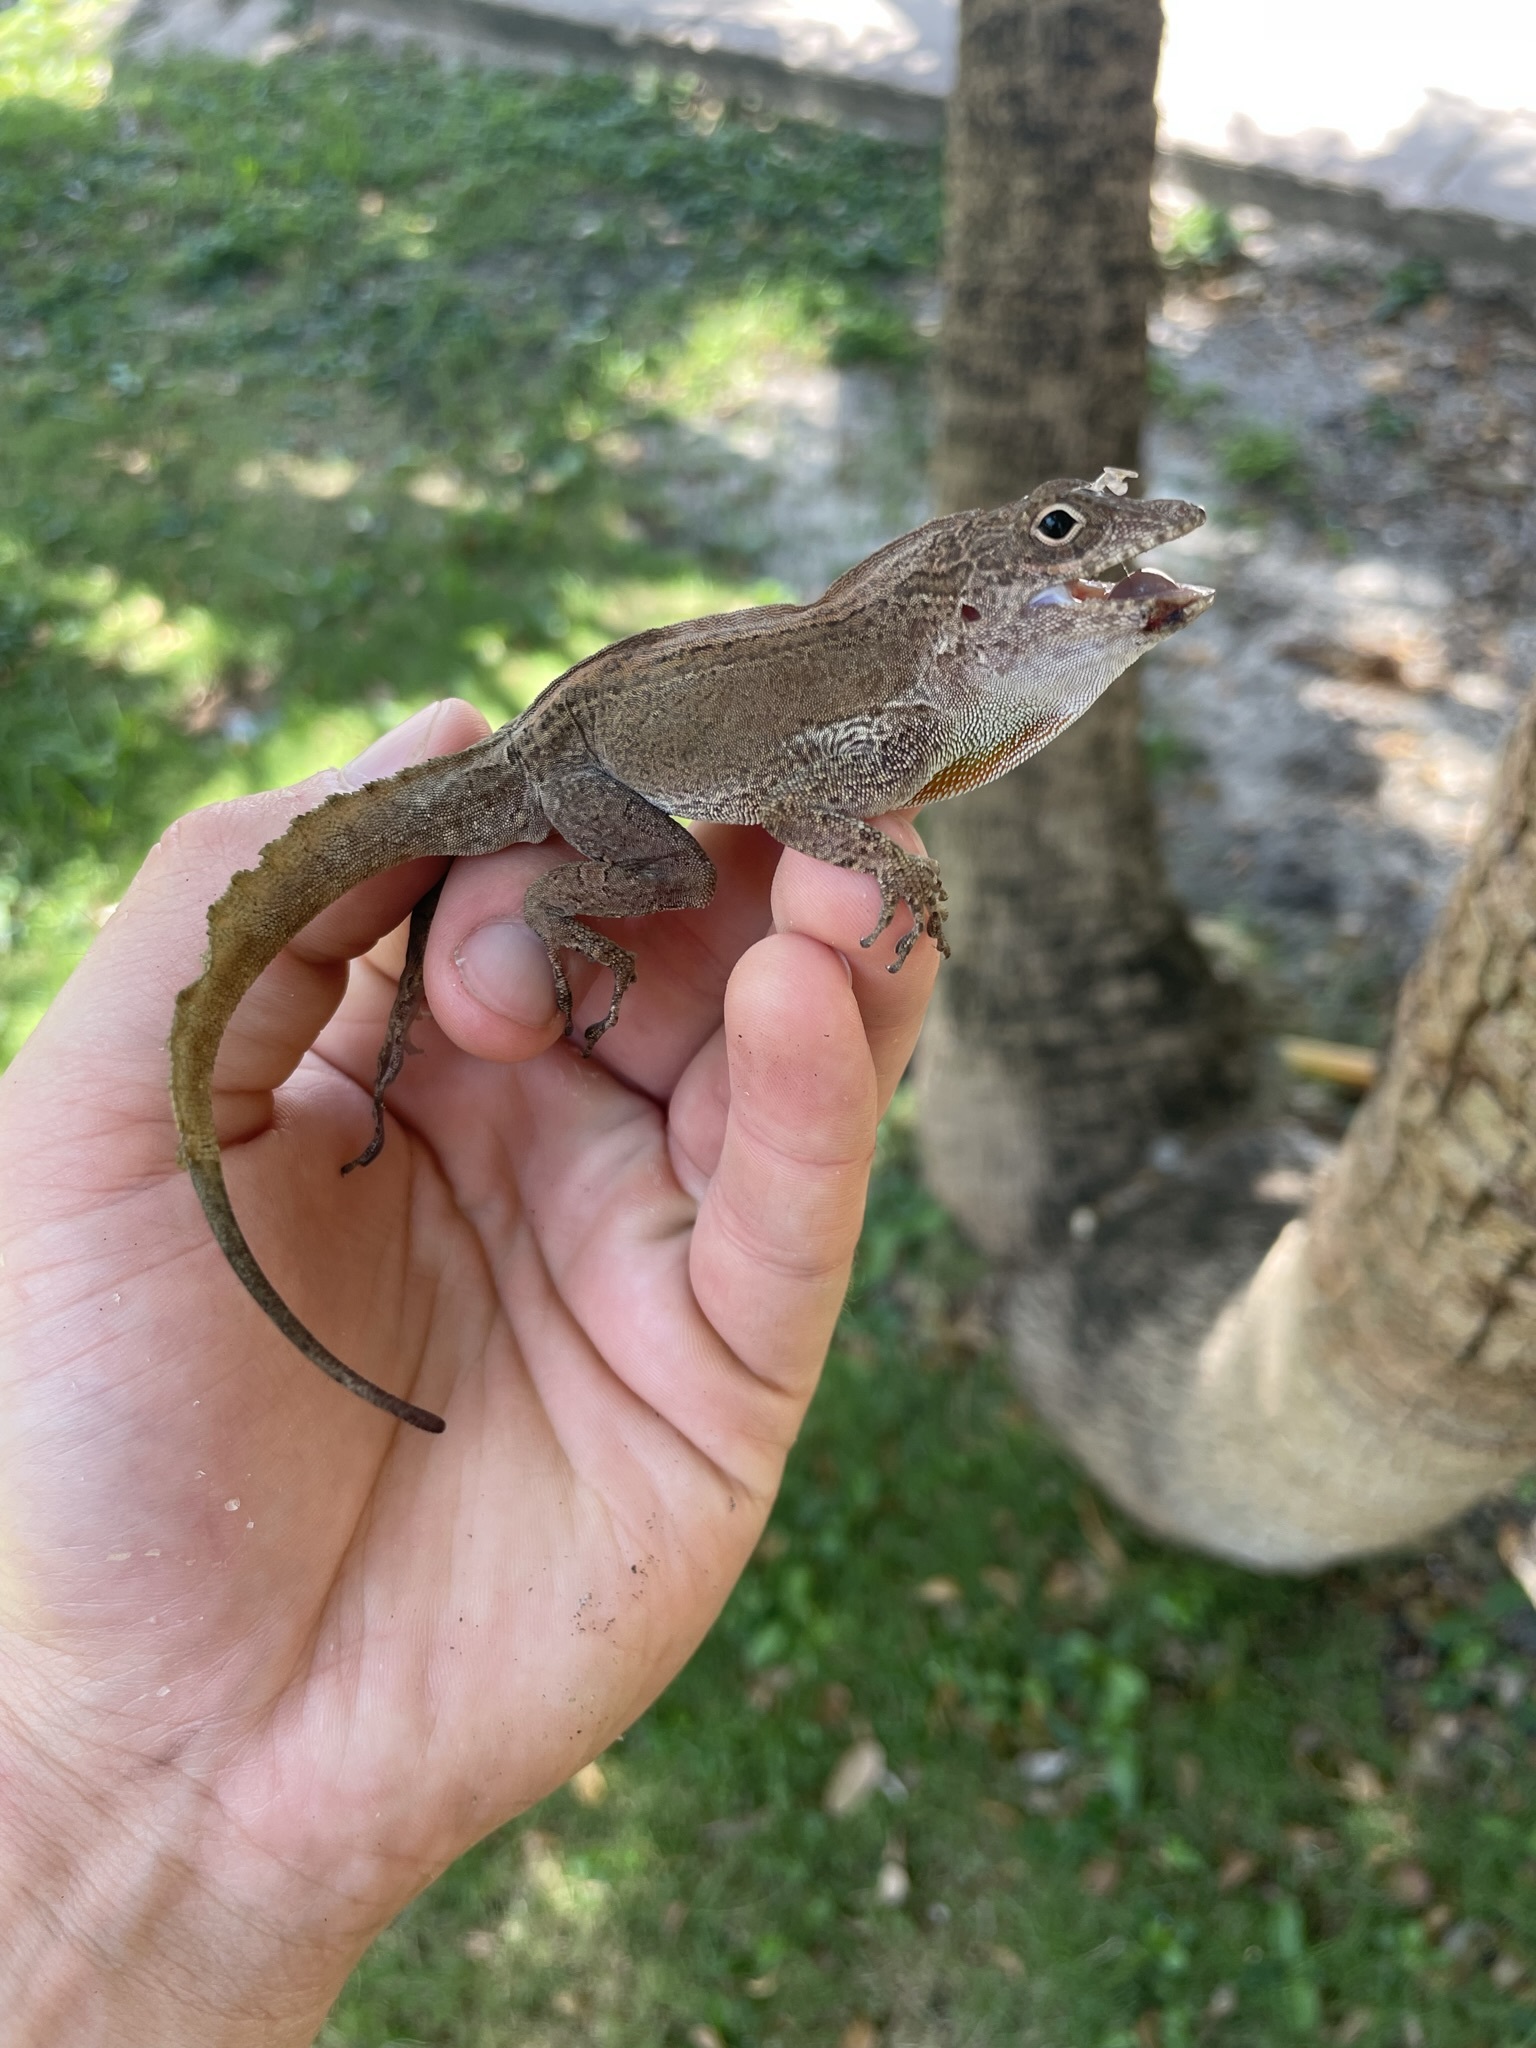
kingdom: Animalia
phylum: Chordata
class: Squamata
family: Dactyloidae
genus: Anolis
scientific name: Anolis cristatellus
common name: Crested anole
